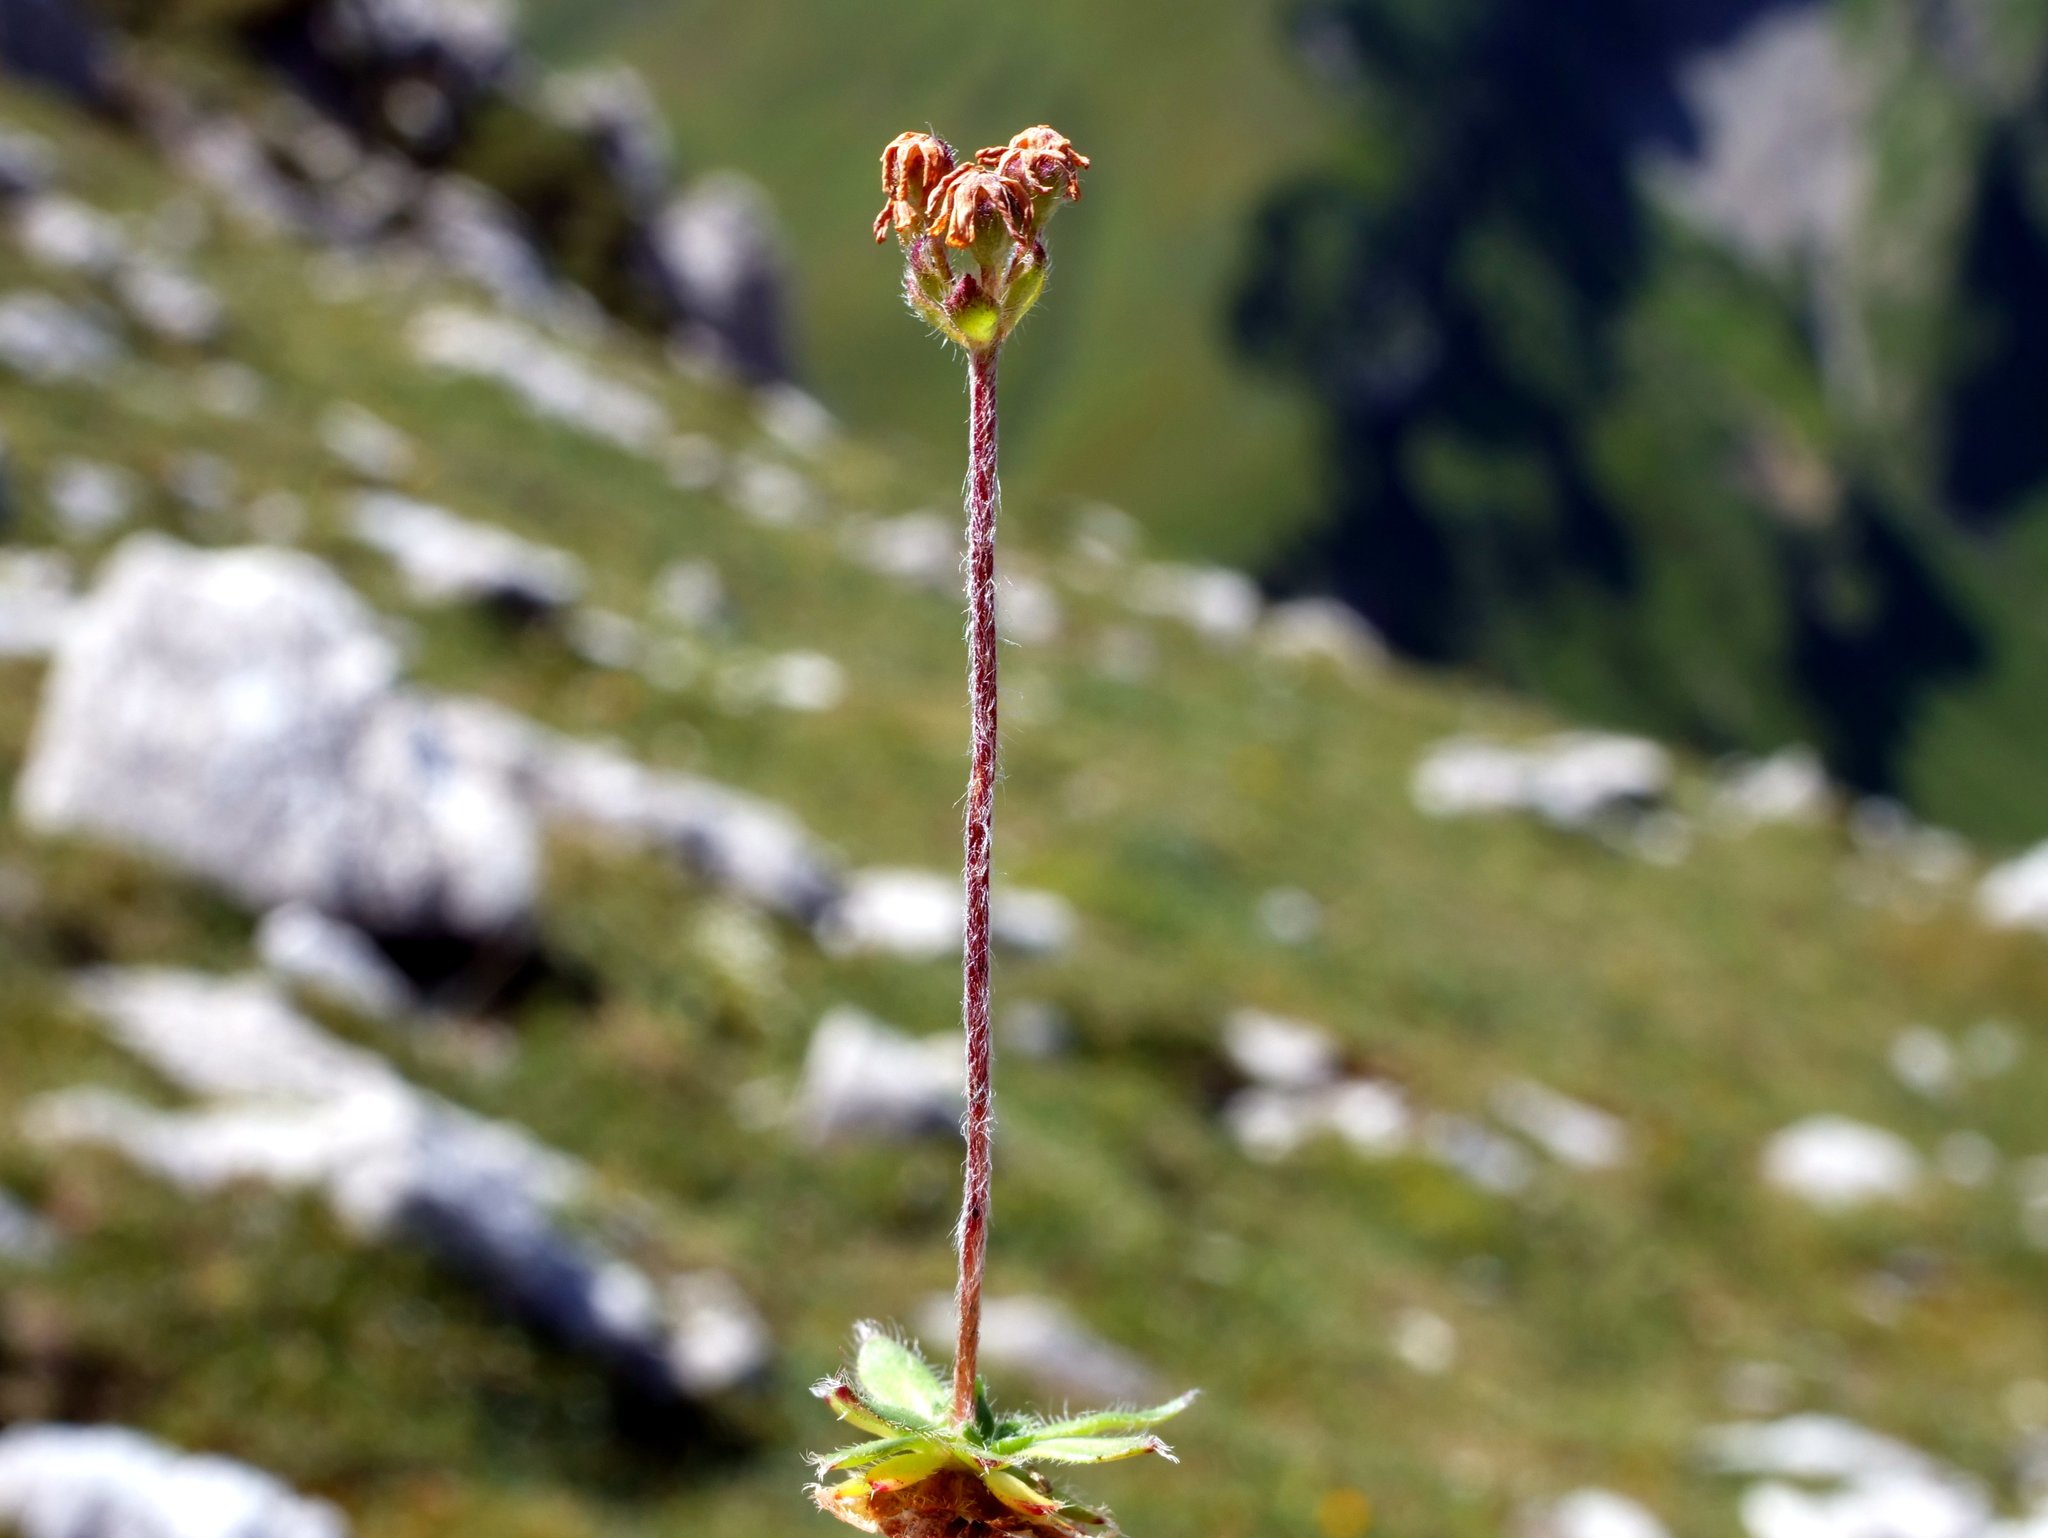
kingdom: Plantae
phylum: Tracheophyta
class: Magnoliopsida
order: Ericales
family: Primulaceae
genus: Androsace
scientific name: Androsace chamaejasme
